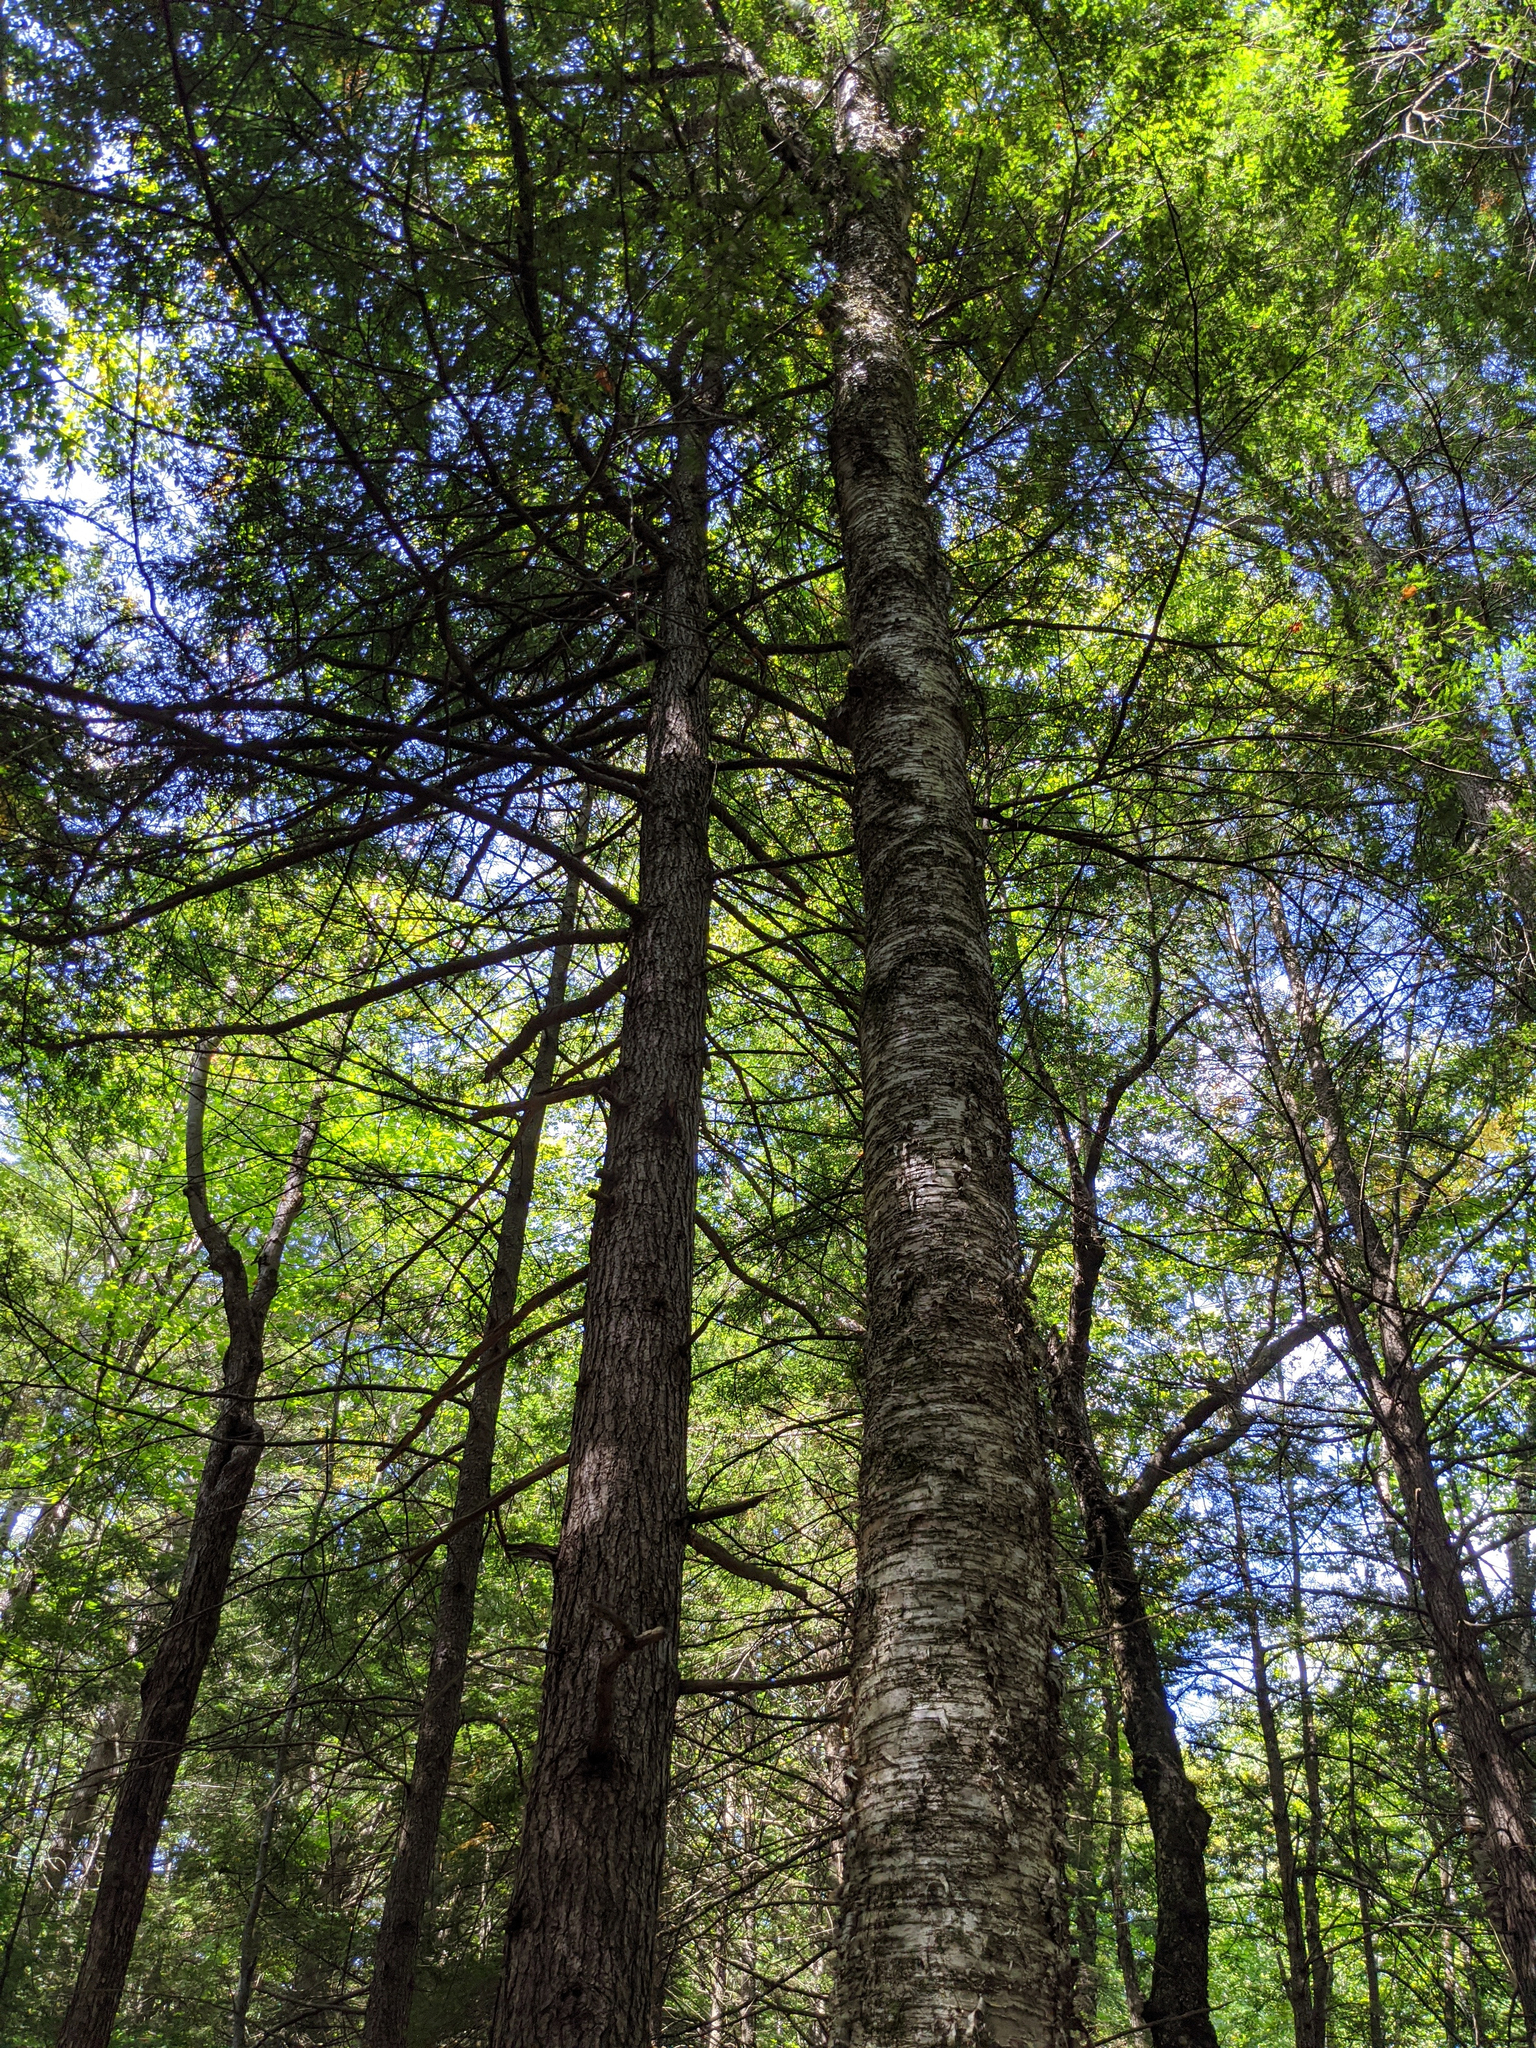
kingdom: Plantae
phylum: Tracheophyta
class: Magnoliopsida
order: Fagales
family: Betulaceae
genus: Betula
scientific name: Betula alleghaniensis
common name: Yellow birch
